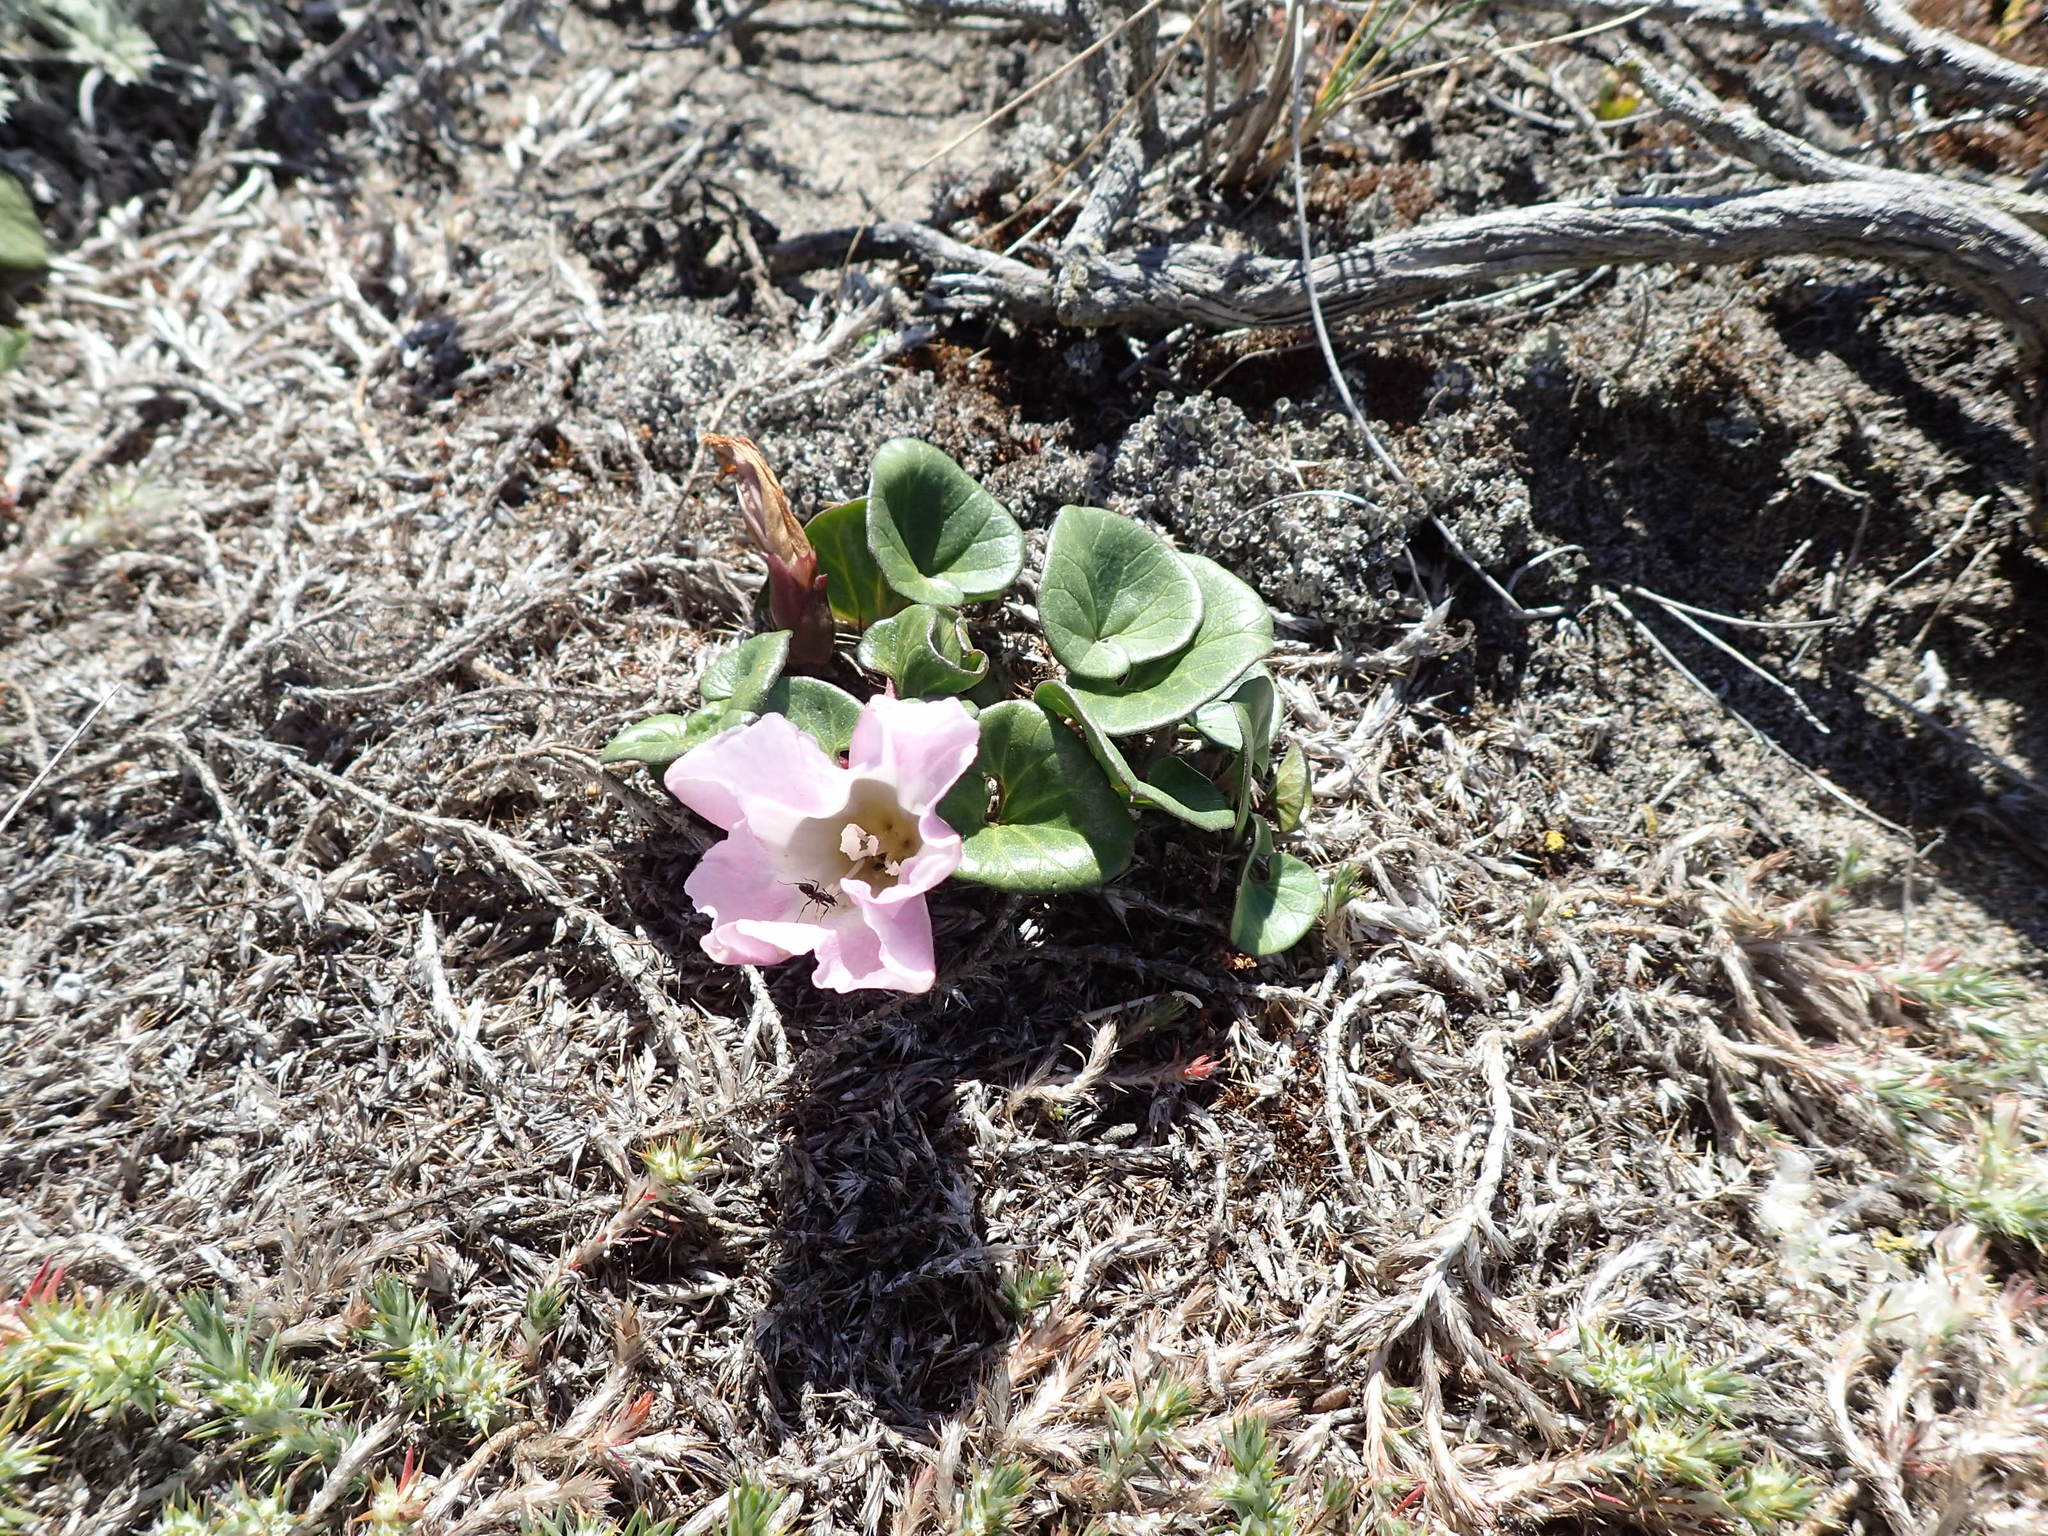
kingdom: Plantae
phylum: Tracheophyta
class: Magnoliopsida
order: Solanales
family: Convolvulaceae
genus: Calystegia
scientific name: Calystegia soldanella
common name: Sea bindweed
